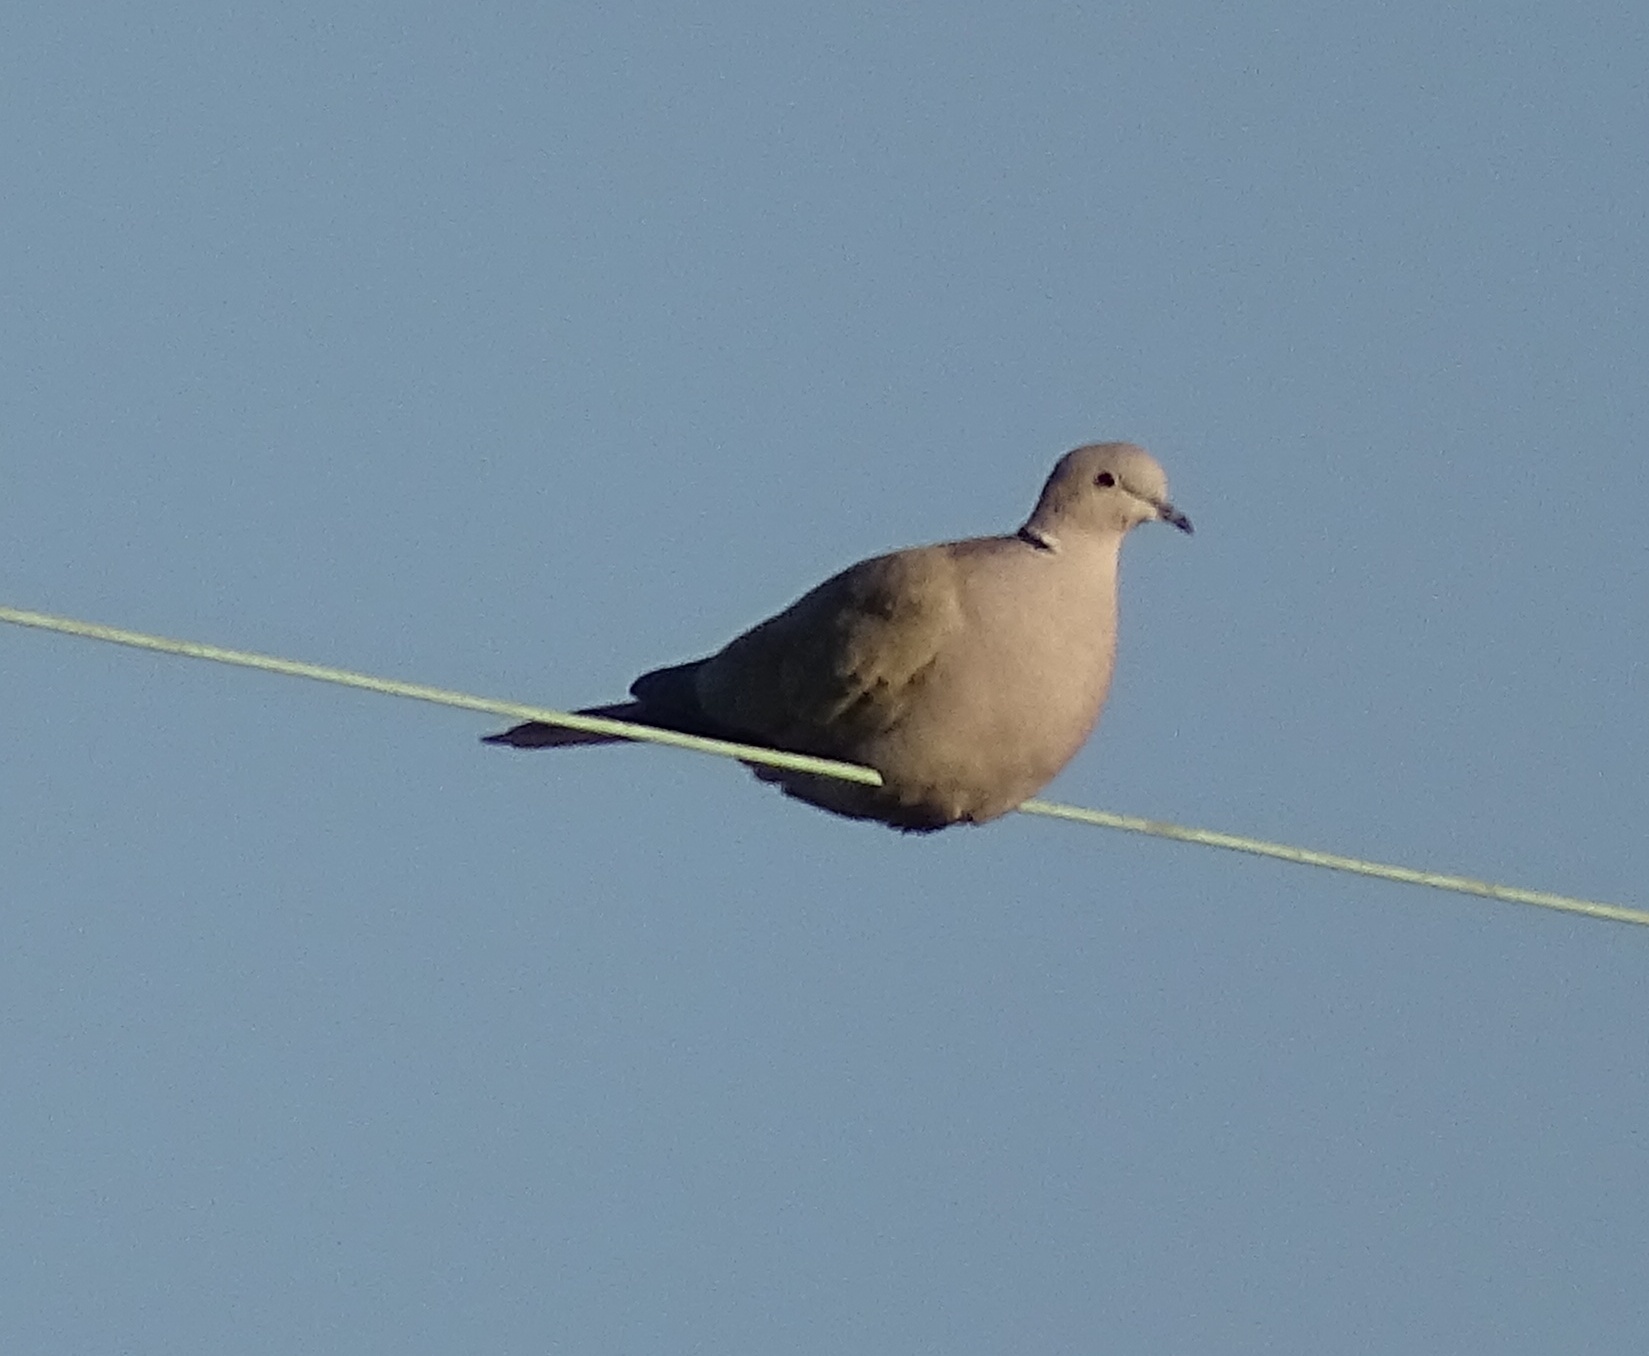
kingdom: Animalia
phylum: Chordata
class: Aves
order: Columbiformes
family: Columbidae
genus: Streptopelia
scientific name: Streptopelia decaocto
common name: Eurasian collared dove
